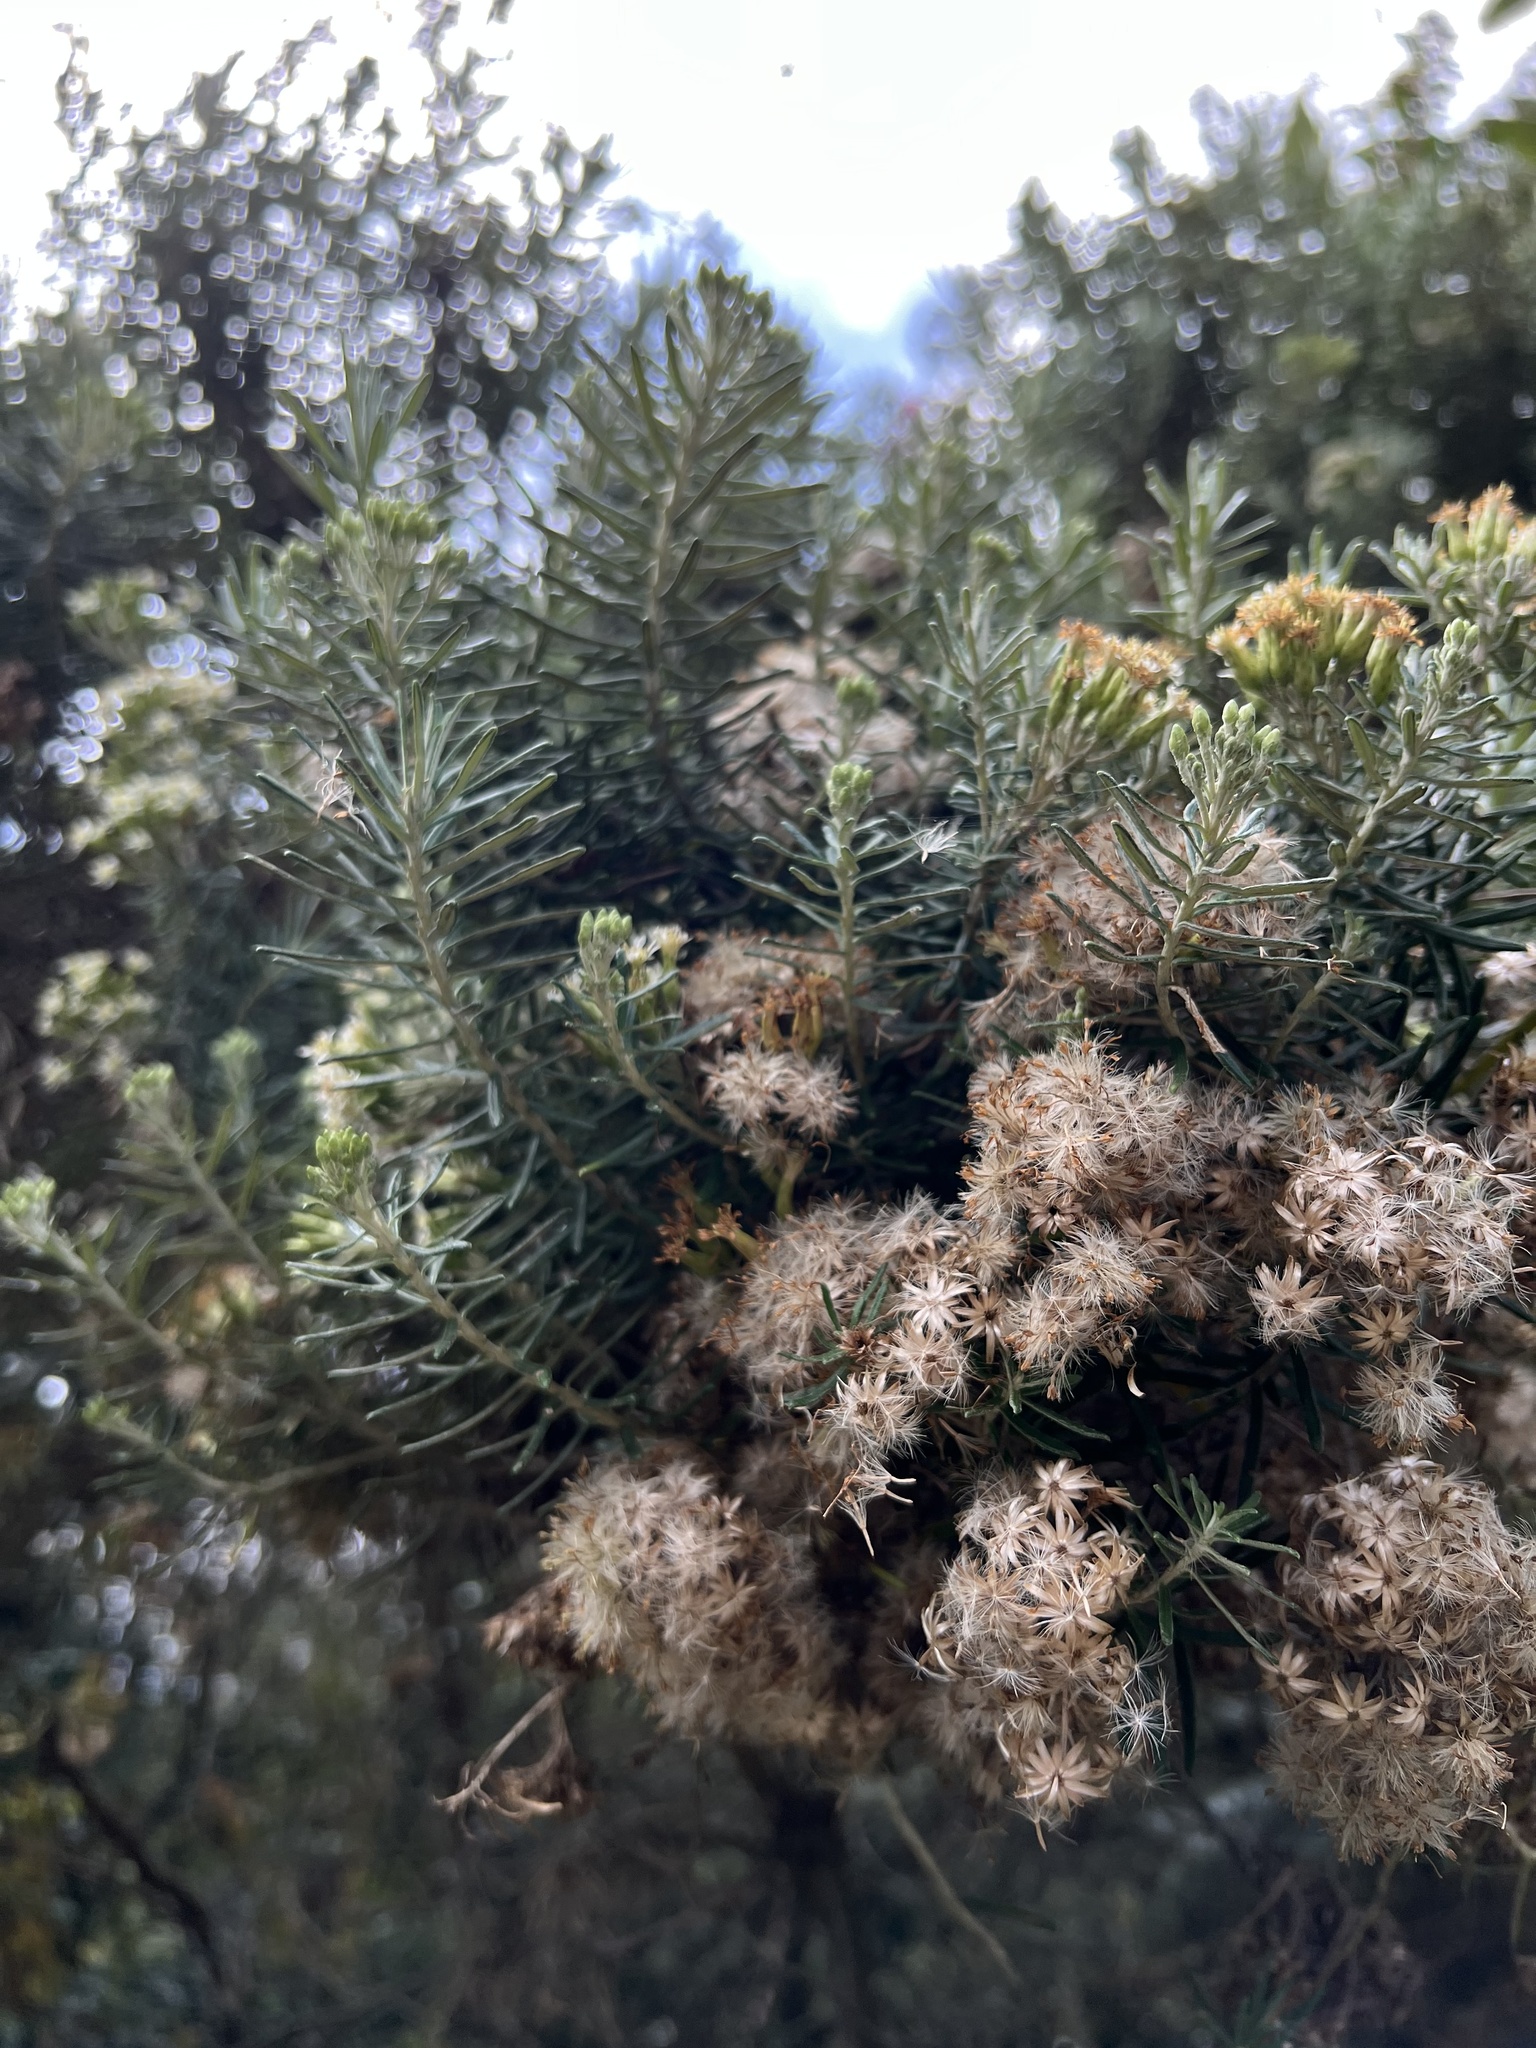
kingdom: Plantae
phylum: Tracheophyta
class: Magnoliopsida
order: Asterales
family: Asteraceae
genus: Linochilus
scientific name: Linochilus rosmarinifolius
